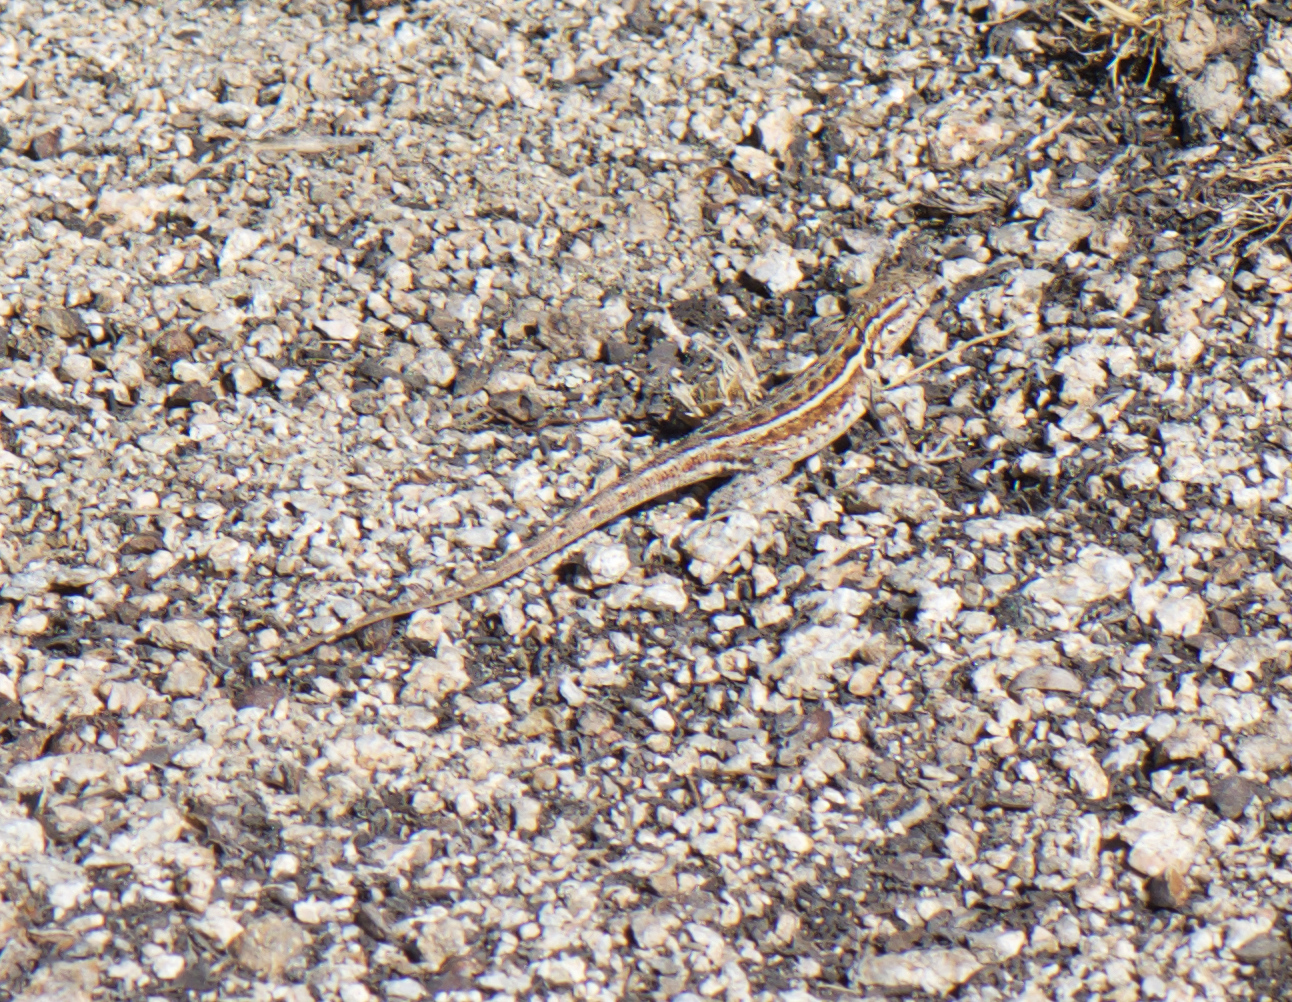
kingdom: Animalia
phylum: Chordata
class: Squamata
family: Phrynosomatidae
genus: Uta
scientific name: Uta stansburiana
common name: Side-blotched lizard
